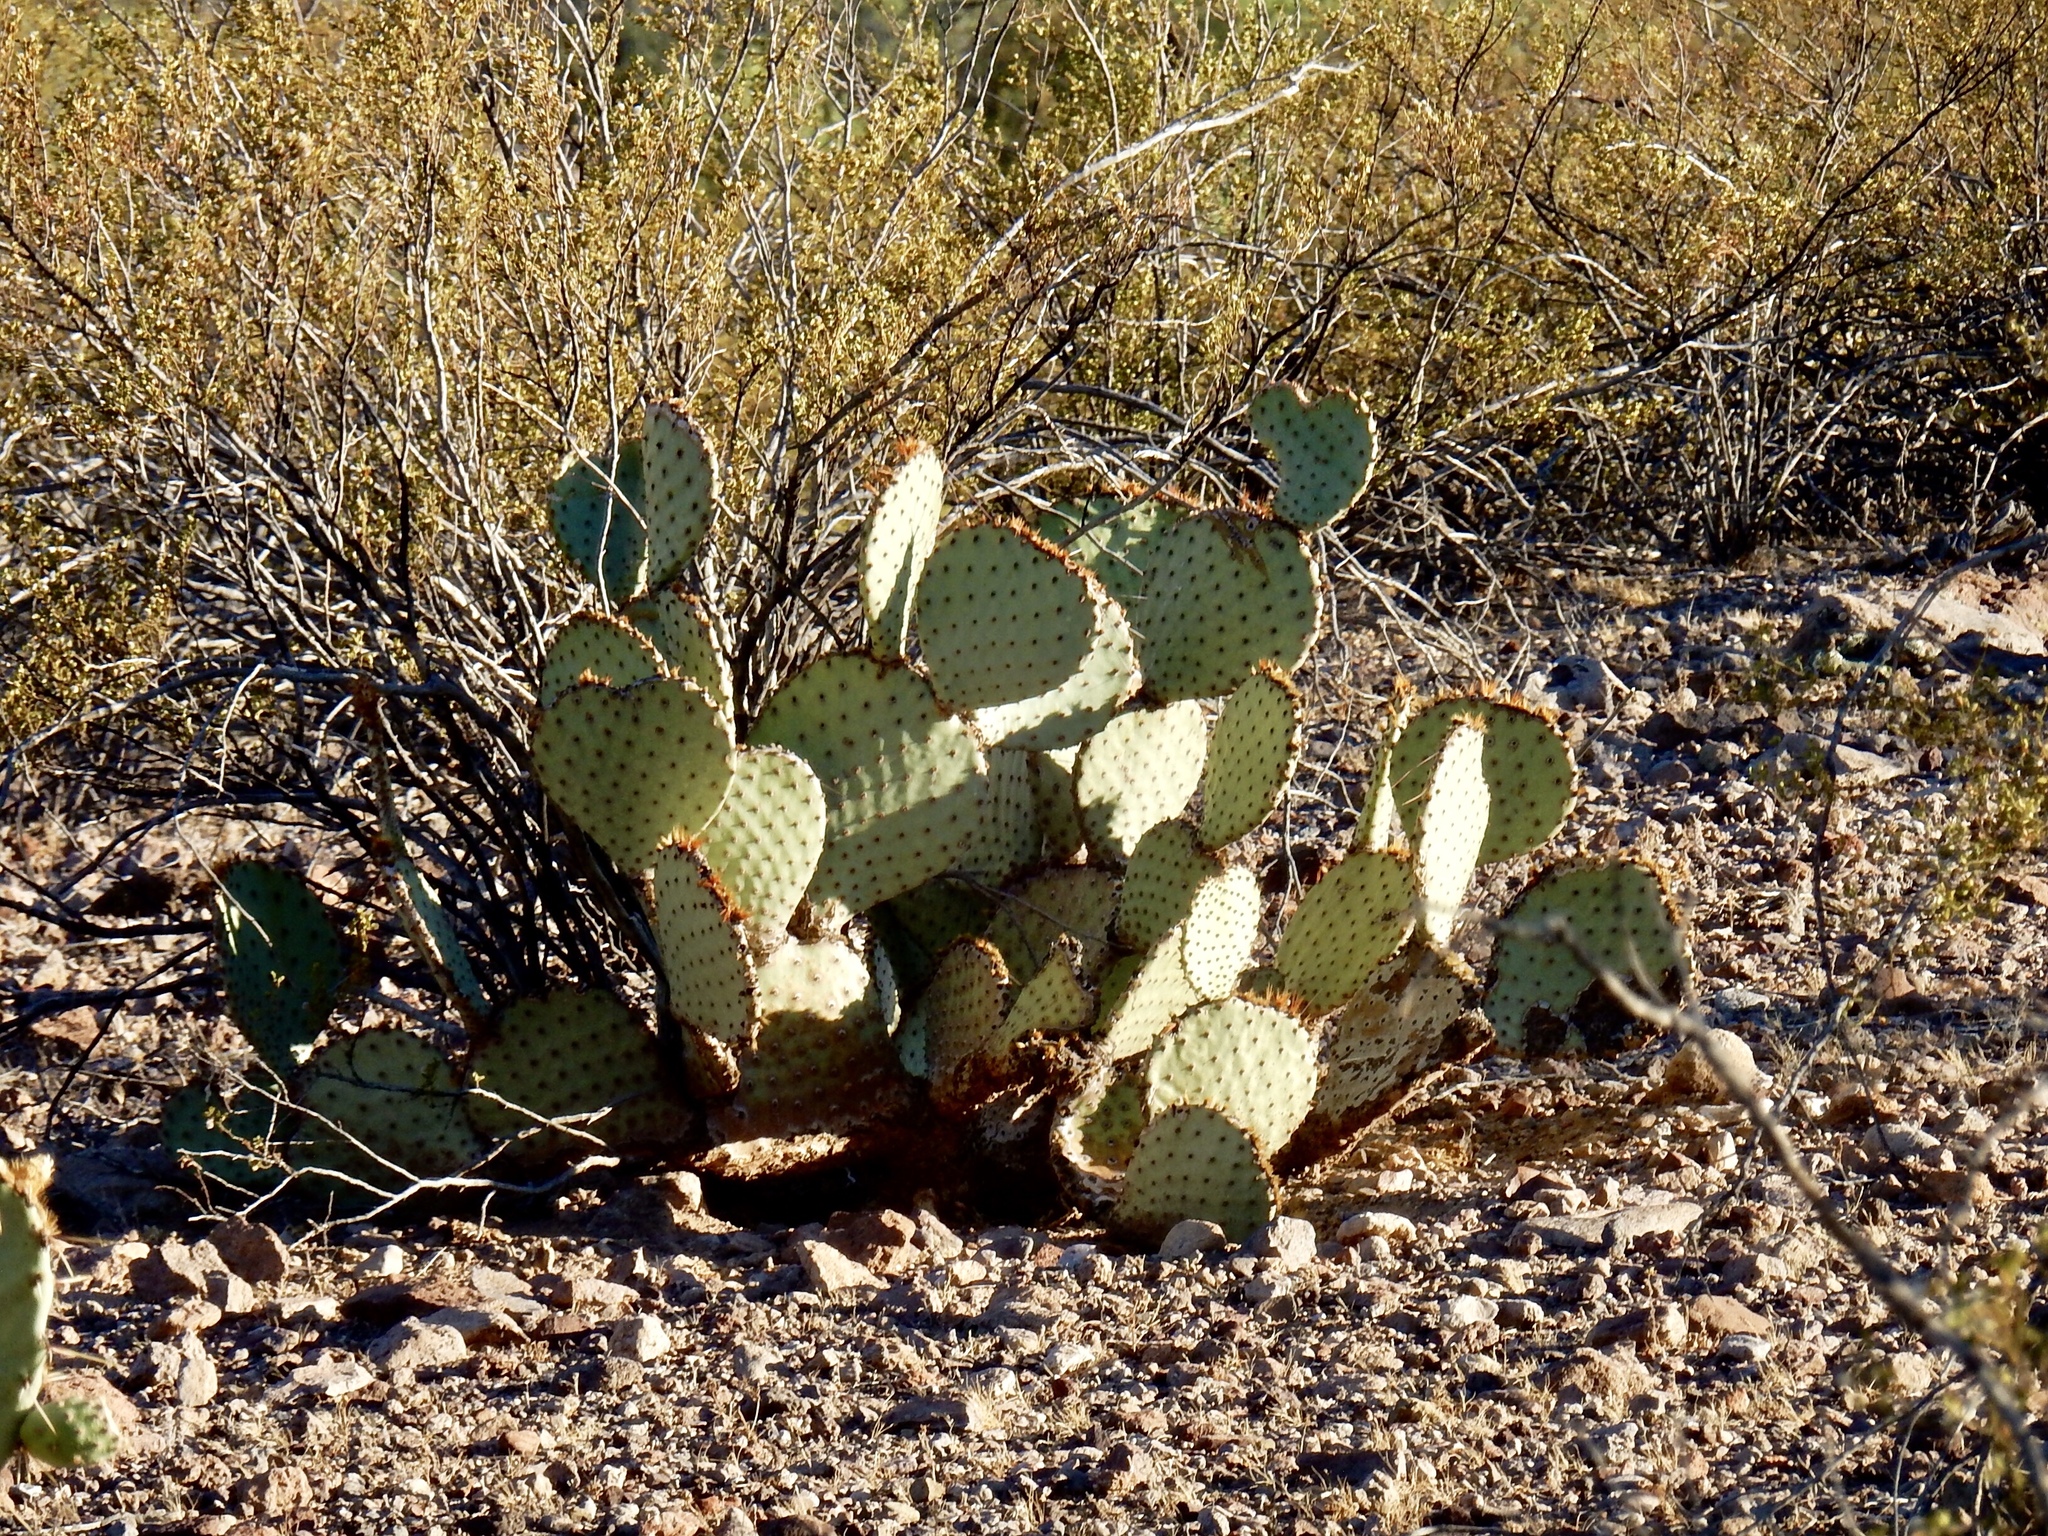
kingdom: Plantae
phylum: Tracheophyta
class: Magnoliopsida
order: Caryophyllales
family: Cactaceae
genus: Opuntia
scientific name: Opuntia macrocentra
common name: Purple prickly-pear
